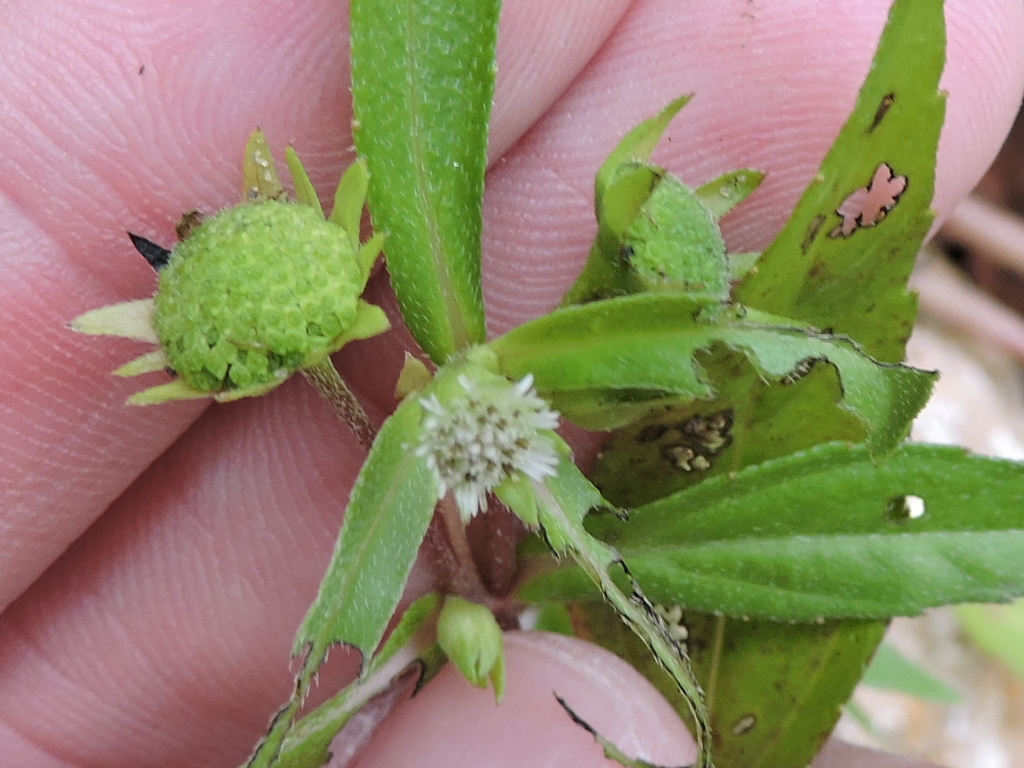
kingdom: Plantae
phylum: Tracheophyta
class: Magnoliopsida
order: Asterales
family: Asteraceae
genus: Eclipta
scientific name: Eclipta prostrata
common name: False daisy
